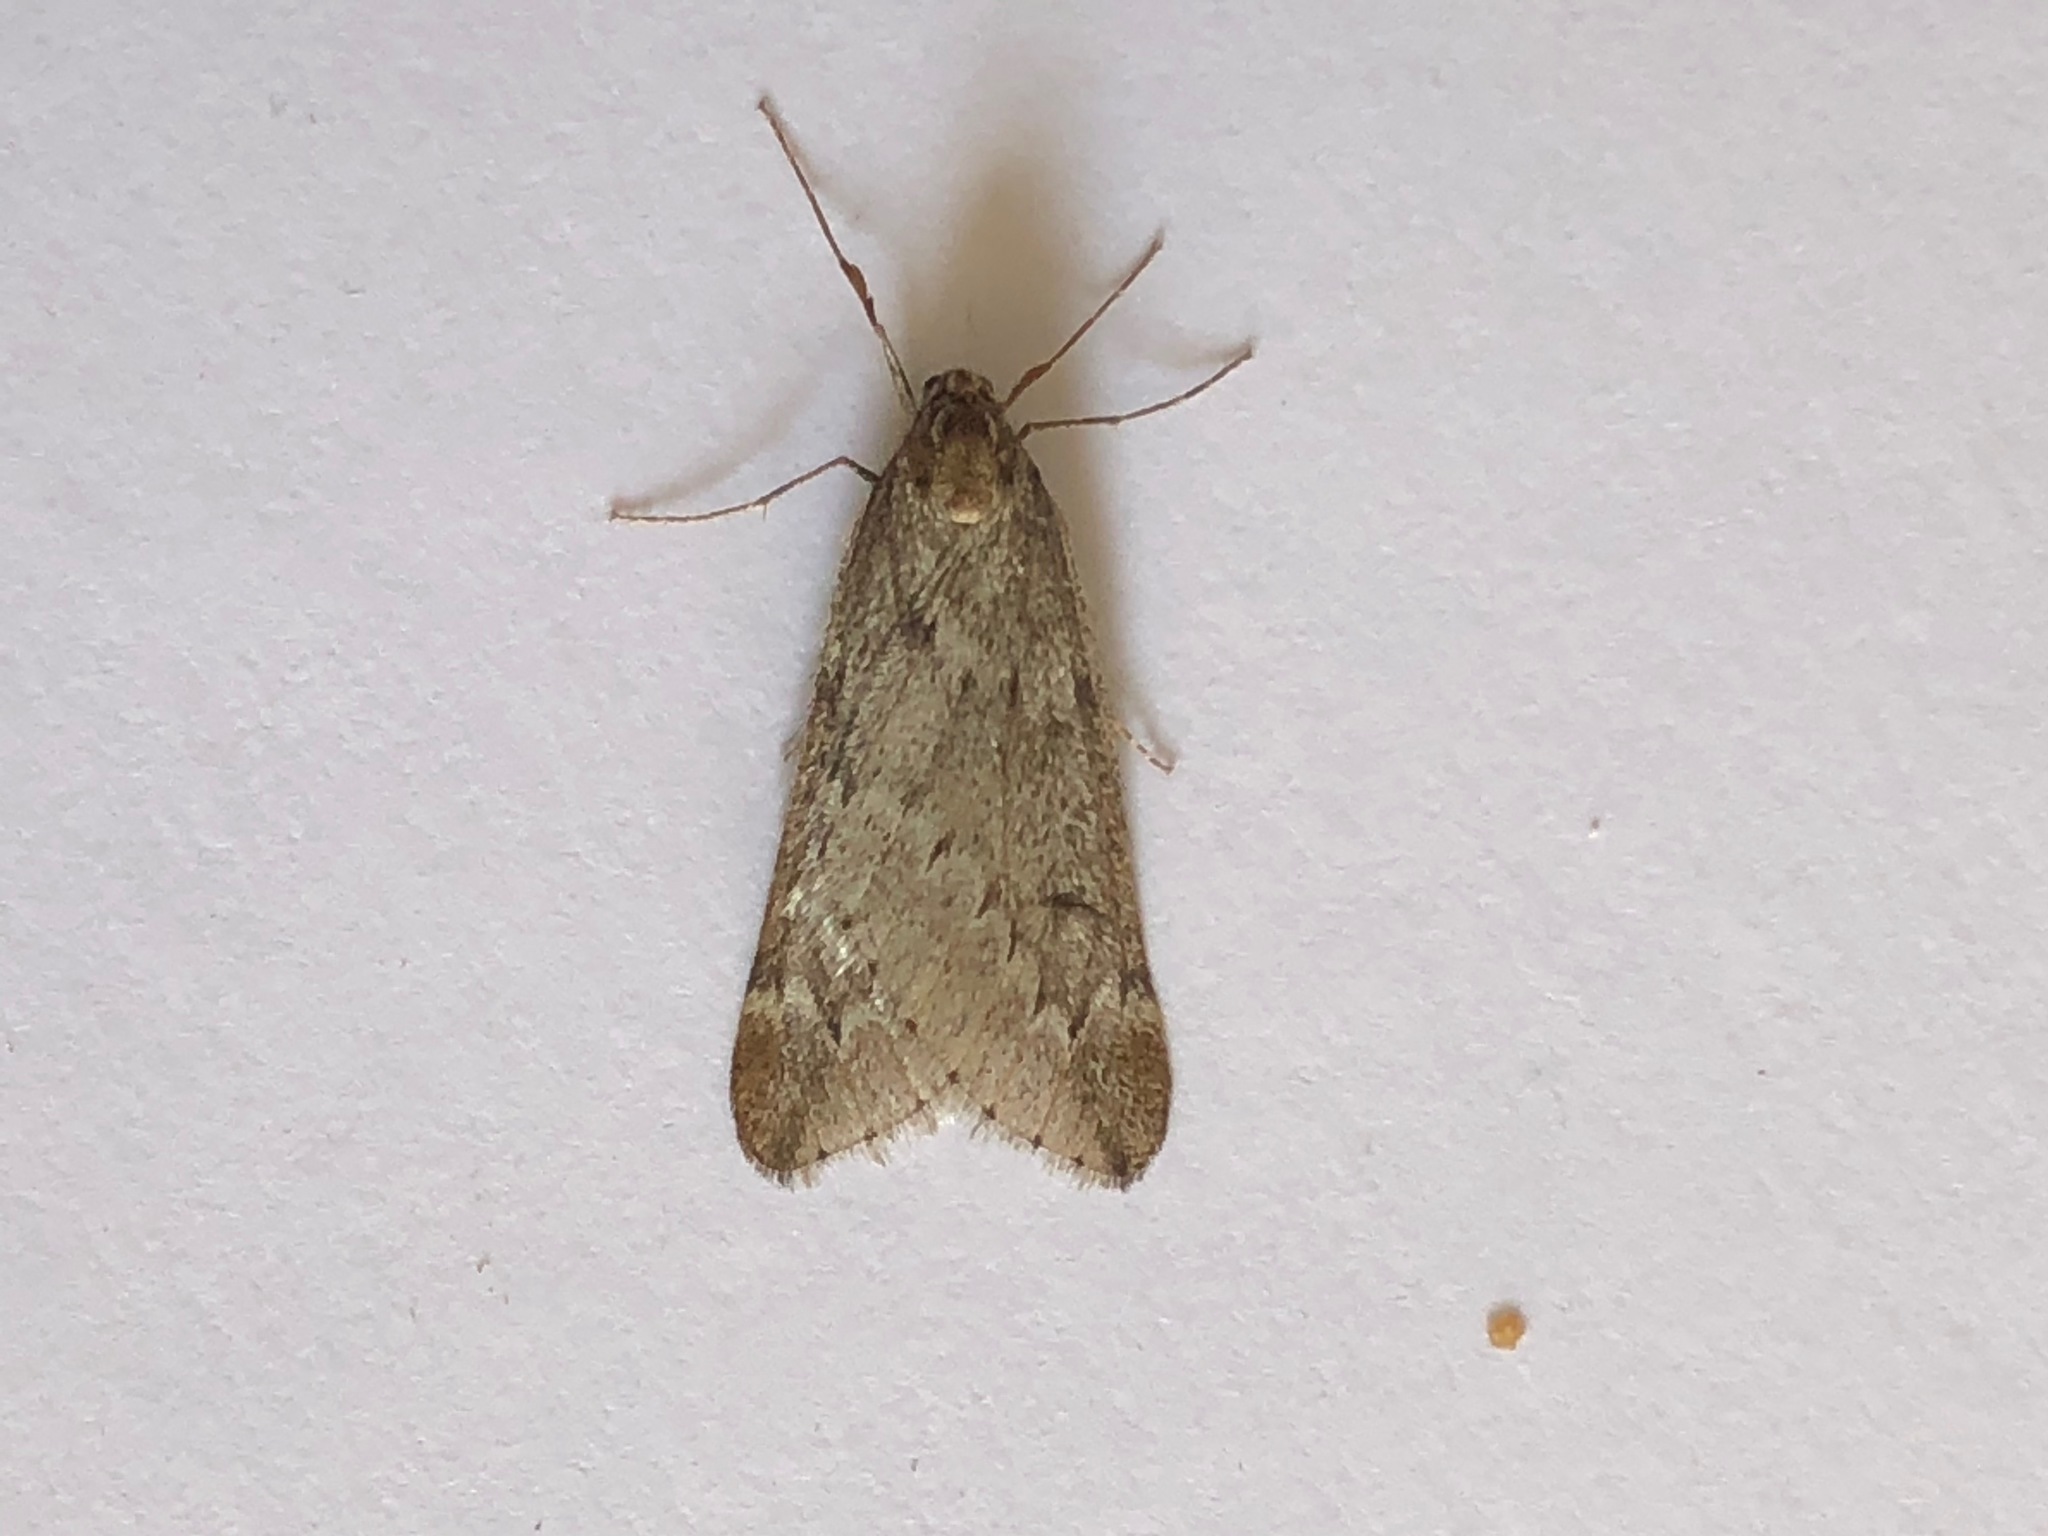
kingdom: Animalia
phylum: Arthropoda
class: Insecta
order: Lepidoptera
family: Geometridae
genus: Alsophila
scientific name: Alsophila aescularia
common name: March moth
